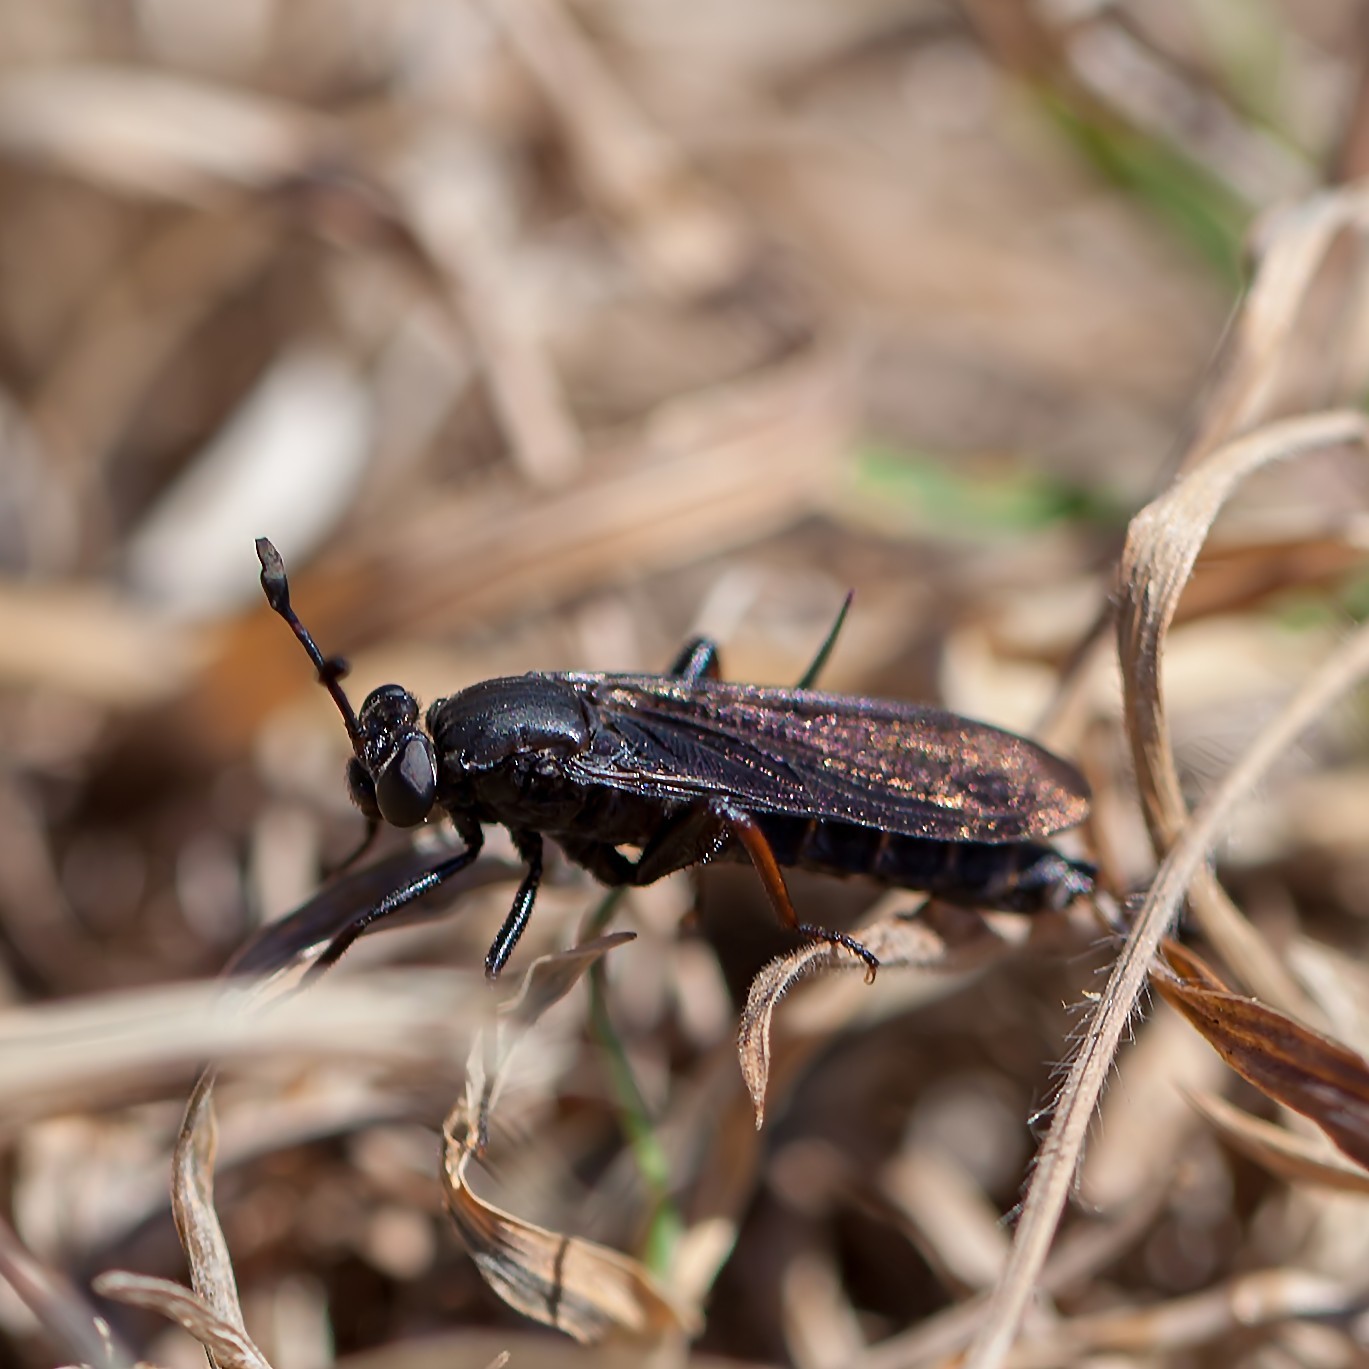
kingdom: Animalia
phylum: Arthropoda
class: Insecta
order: Diptera
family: Mydidae
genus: Phyllomydas
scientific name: Phyllomydas quercus
